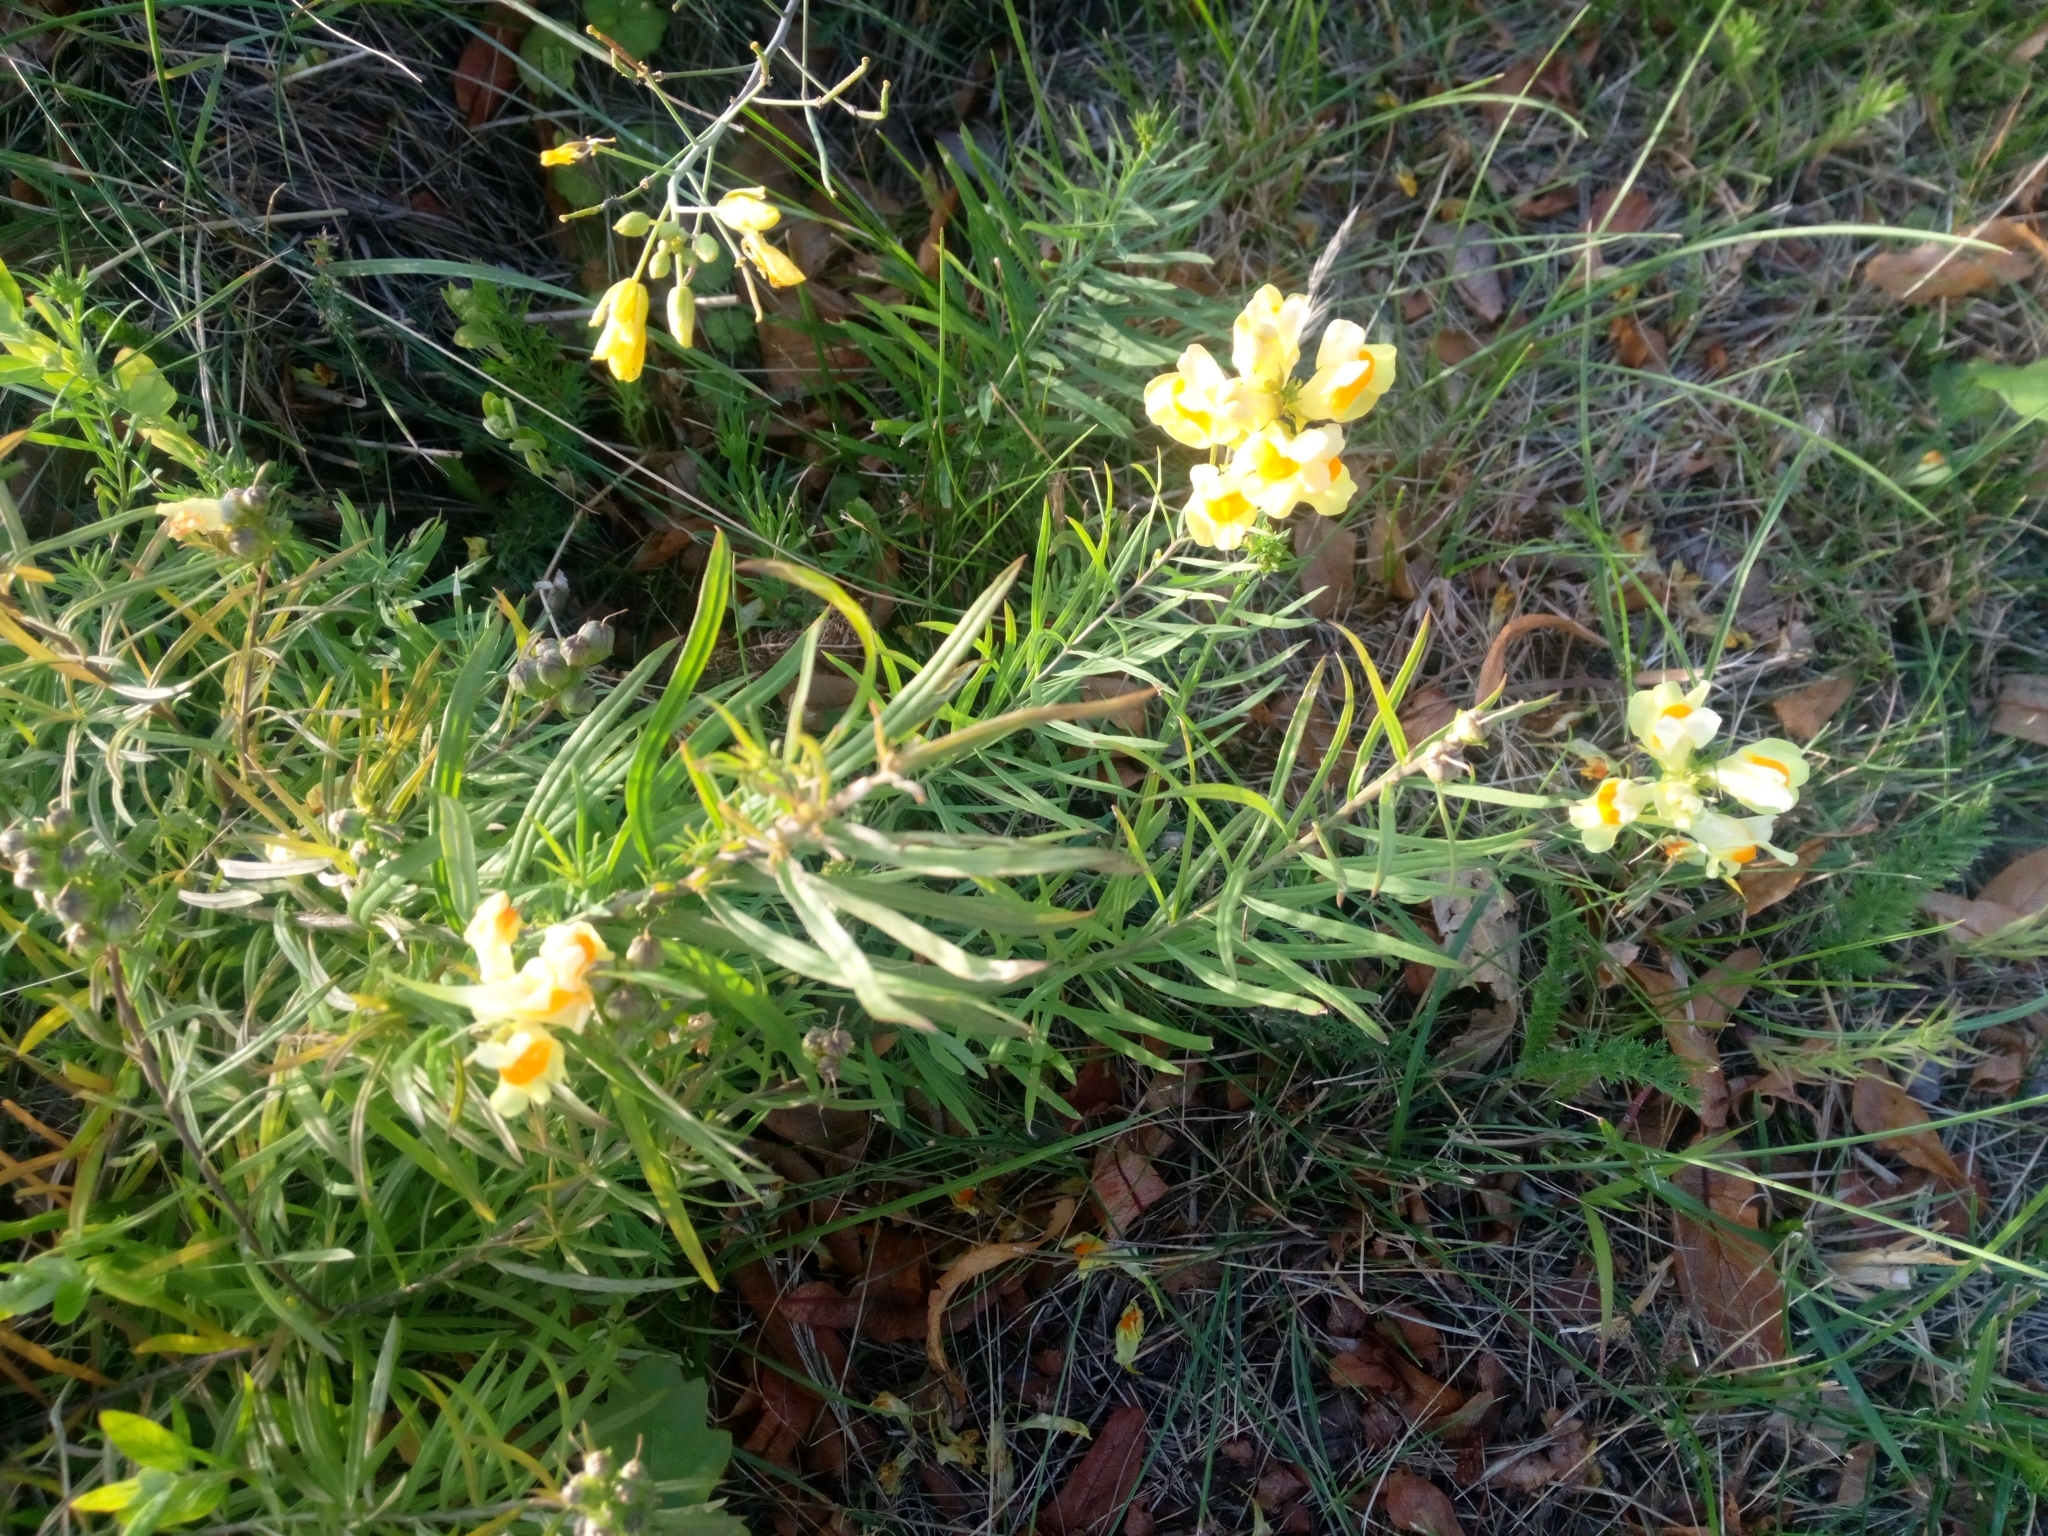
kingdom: Plantae
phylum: Tracheophyta
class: Magnoliopsida
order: Lamiales
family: Plantaginaceae
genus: Linaria
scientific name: Linaria vulgaris
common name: Butter and eggs
